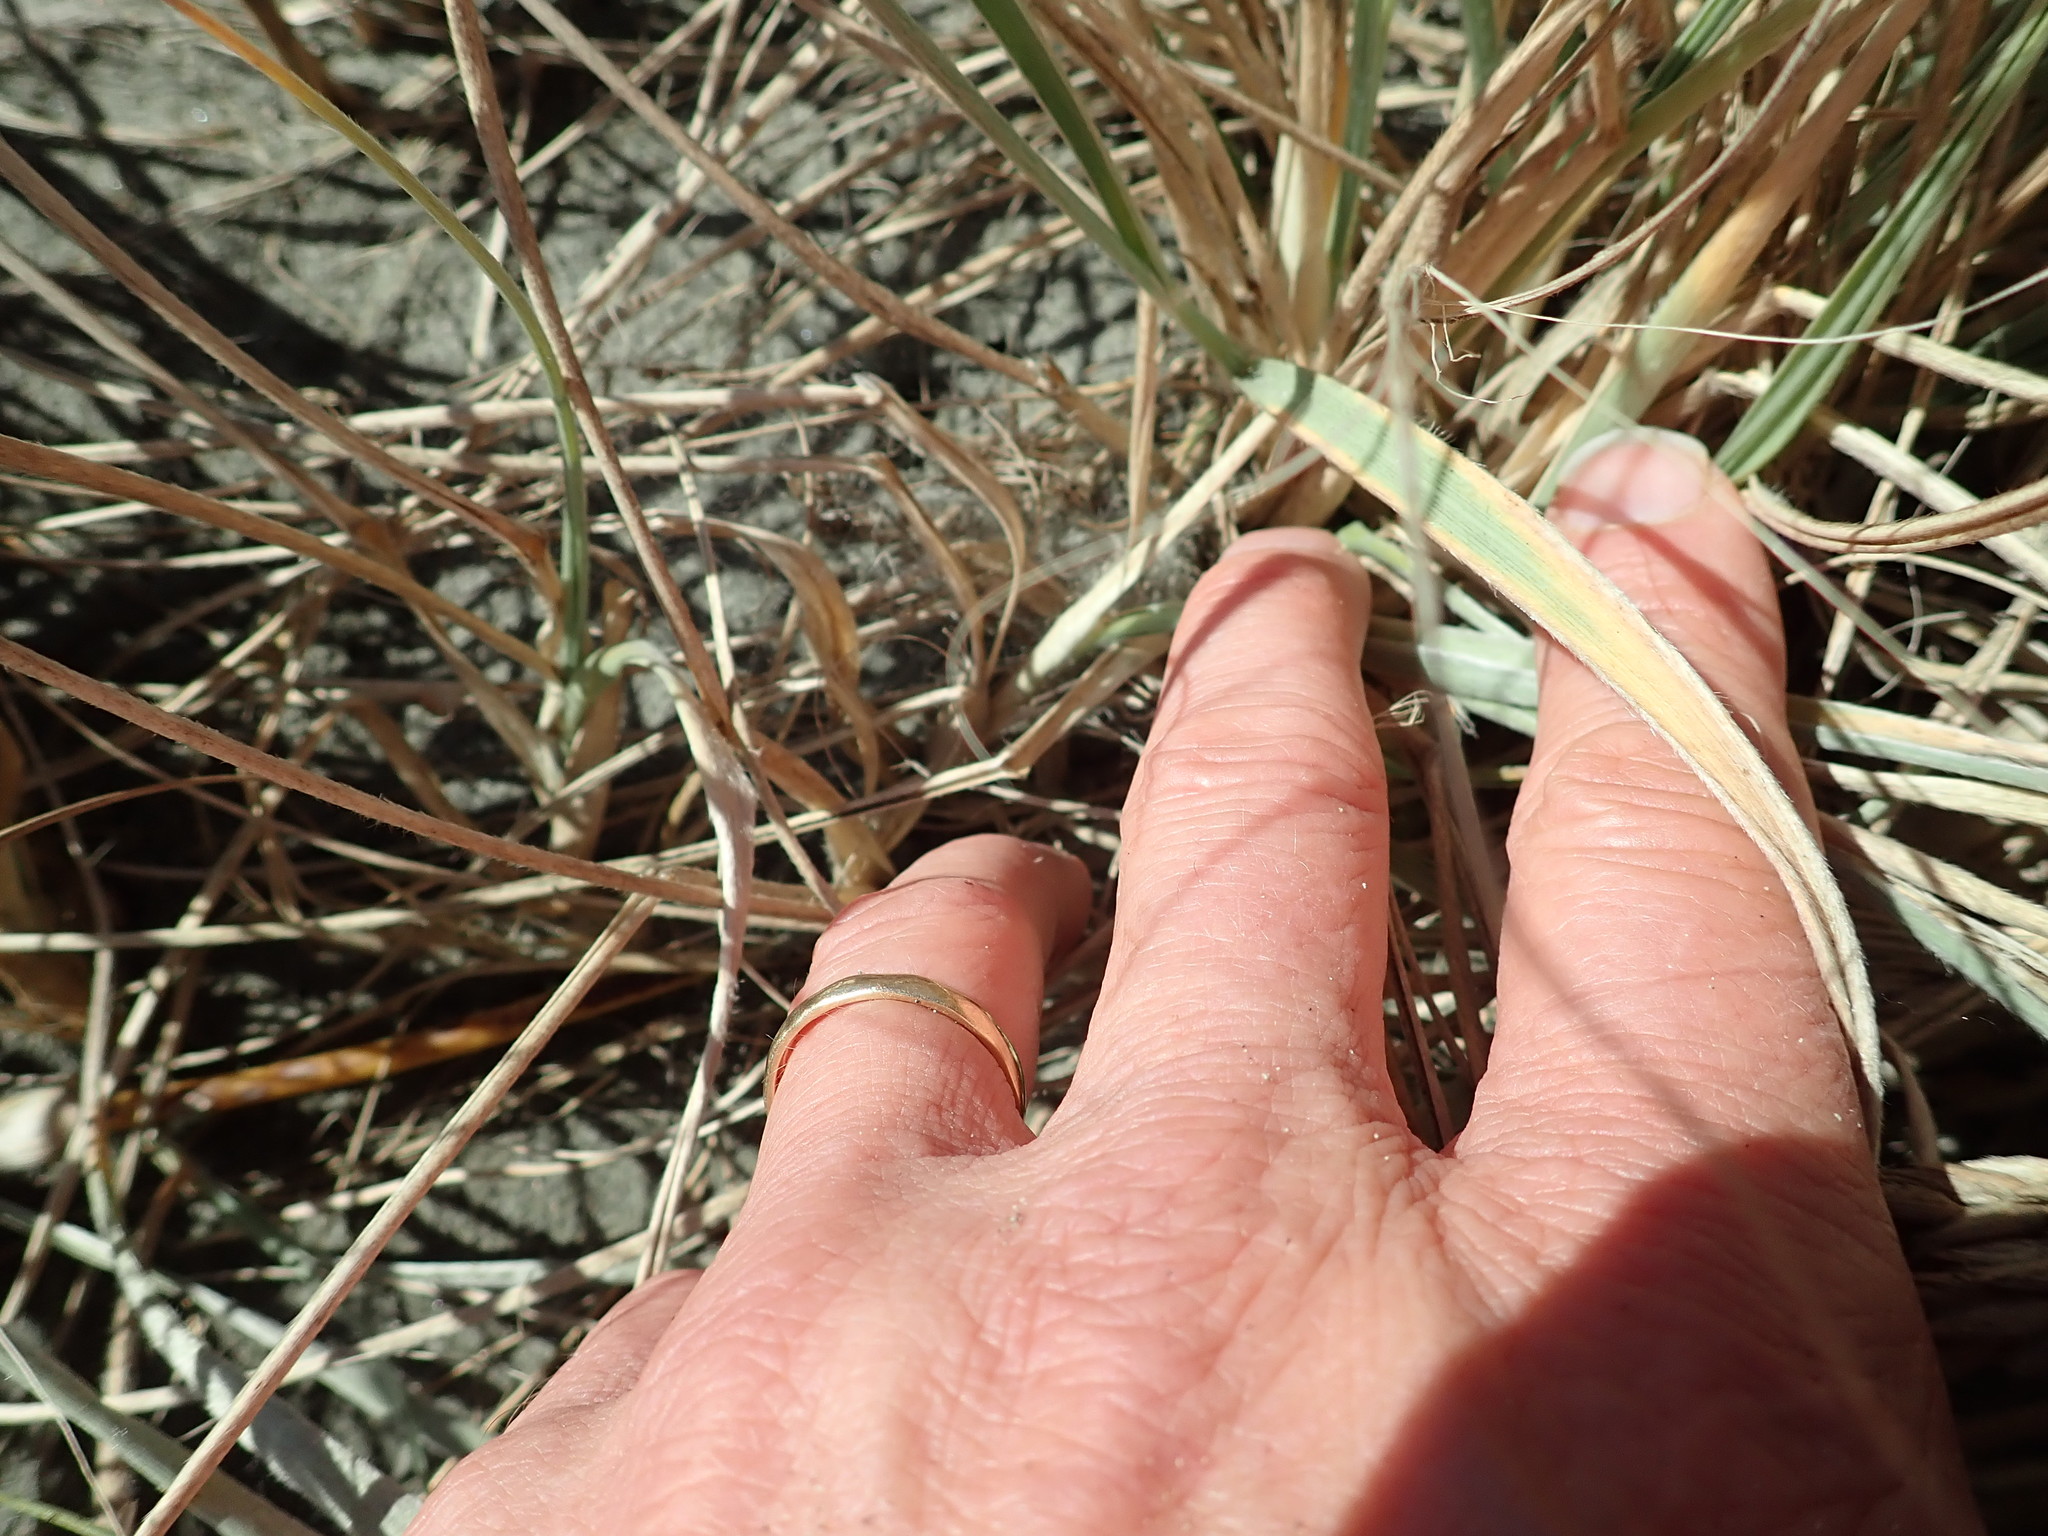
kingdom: Animalia
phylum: Arthropoda
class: Arachnida
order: Araneae
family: Theridiidae
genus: Latrodectus
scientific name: Latrodectus katipo
